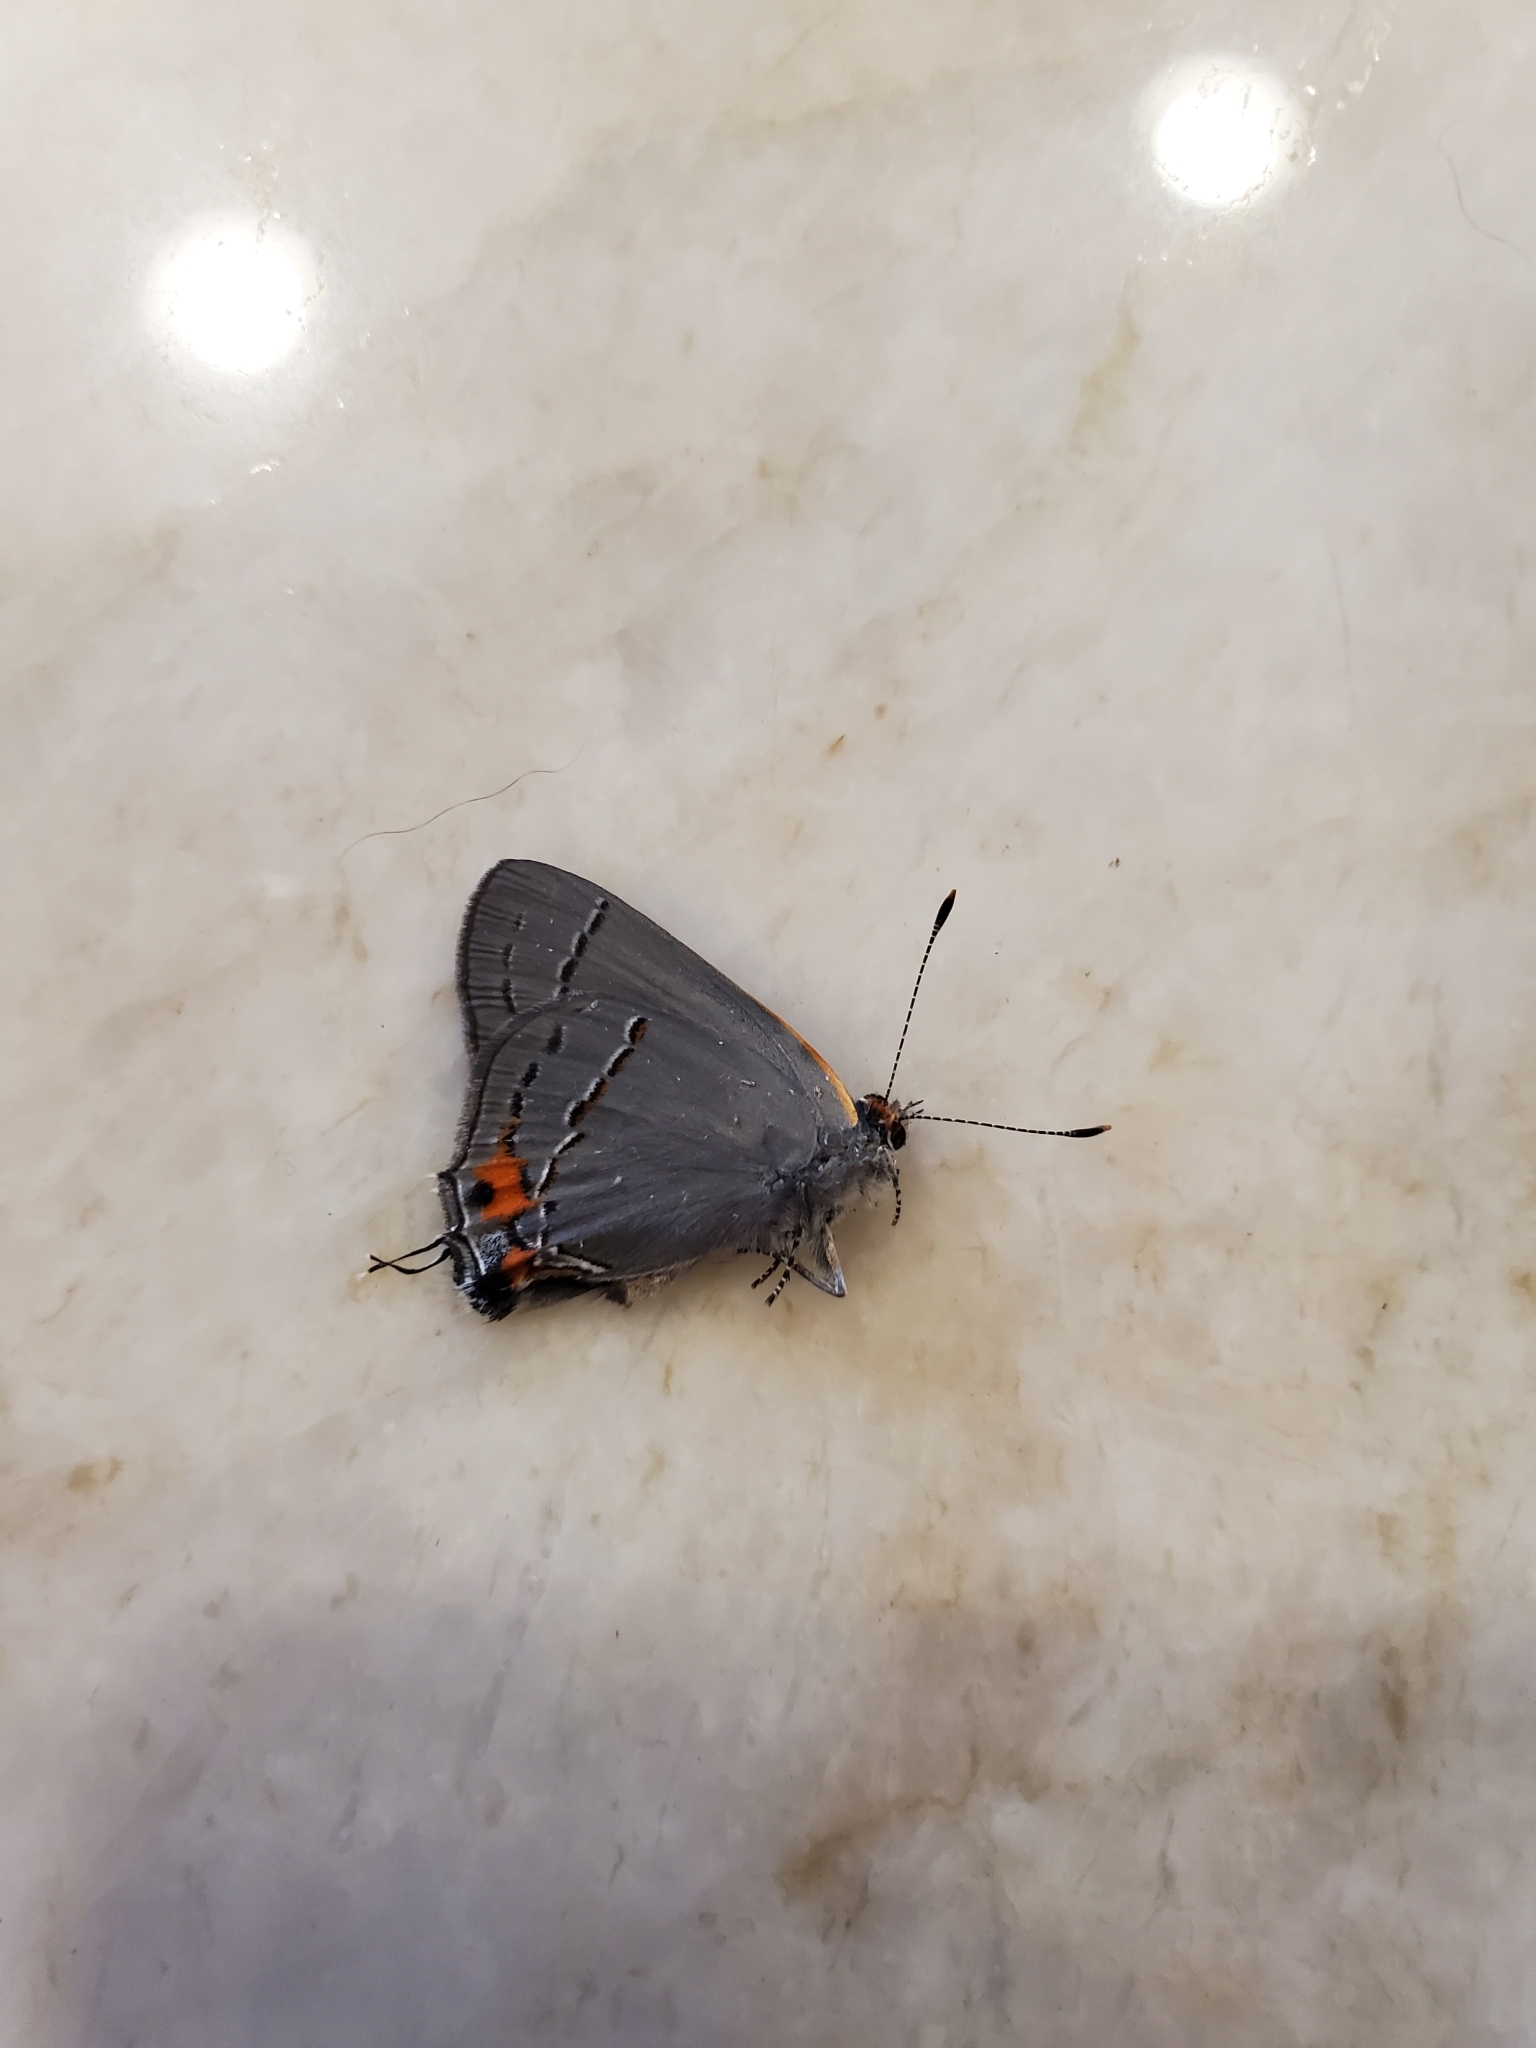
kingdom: Animalia
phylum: Arthropoda
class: Insecta
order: Lepidoptera
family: Lycaenidae
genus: Strymon
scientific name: Strymon melinus
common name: Gray hairstreak
